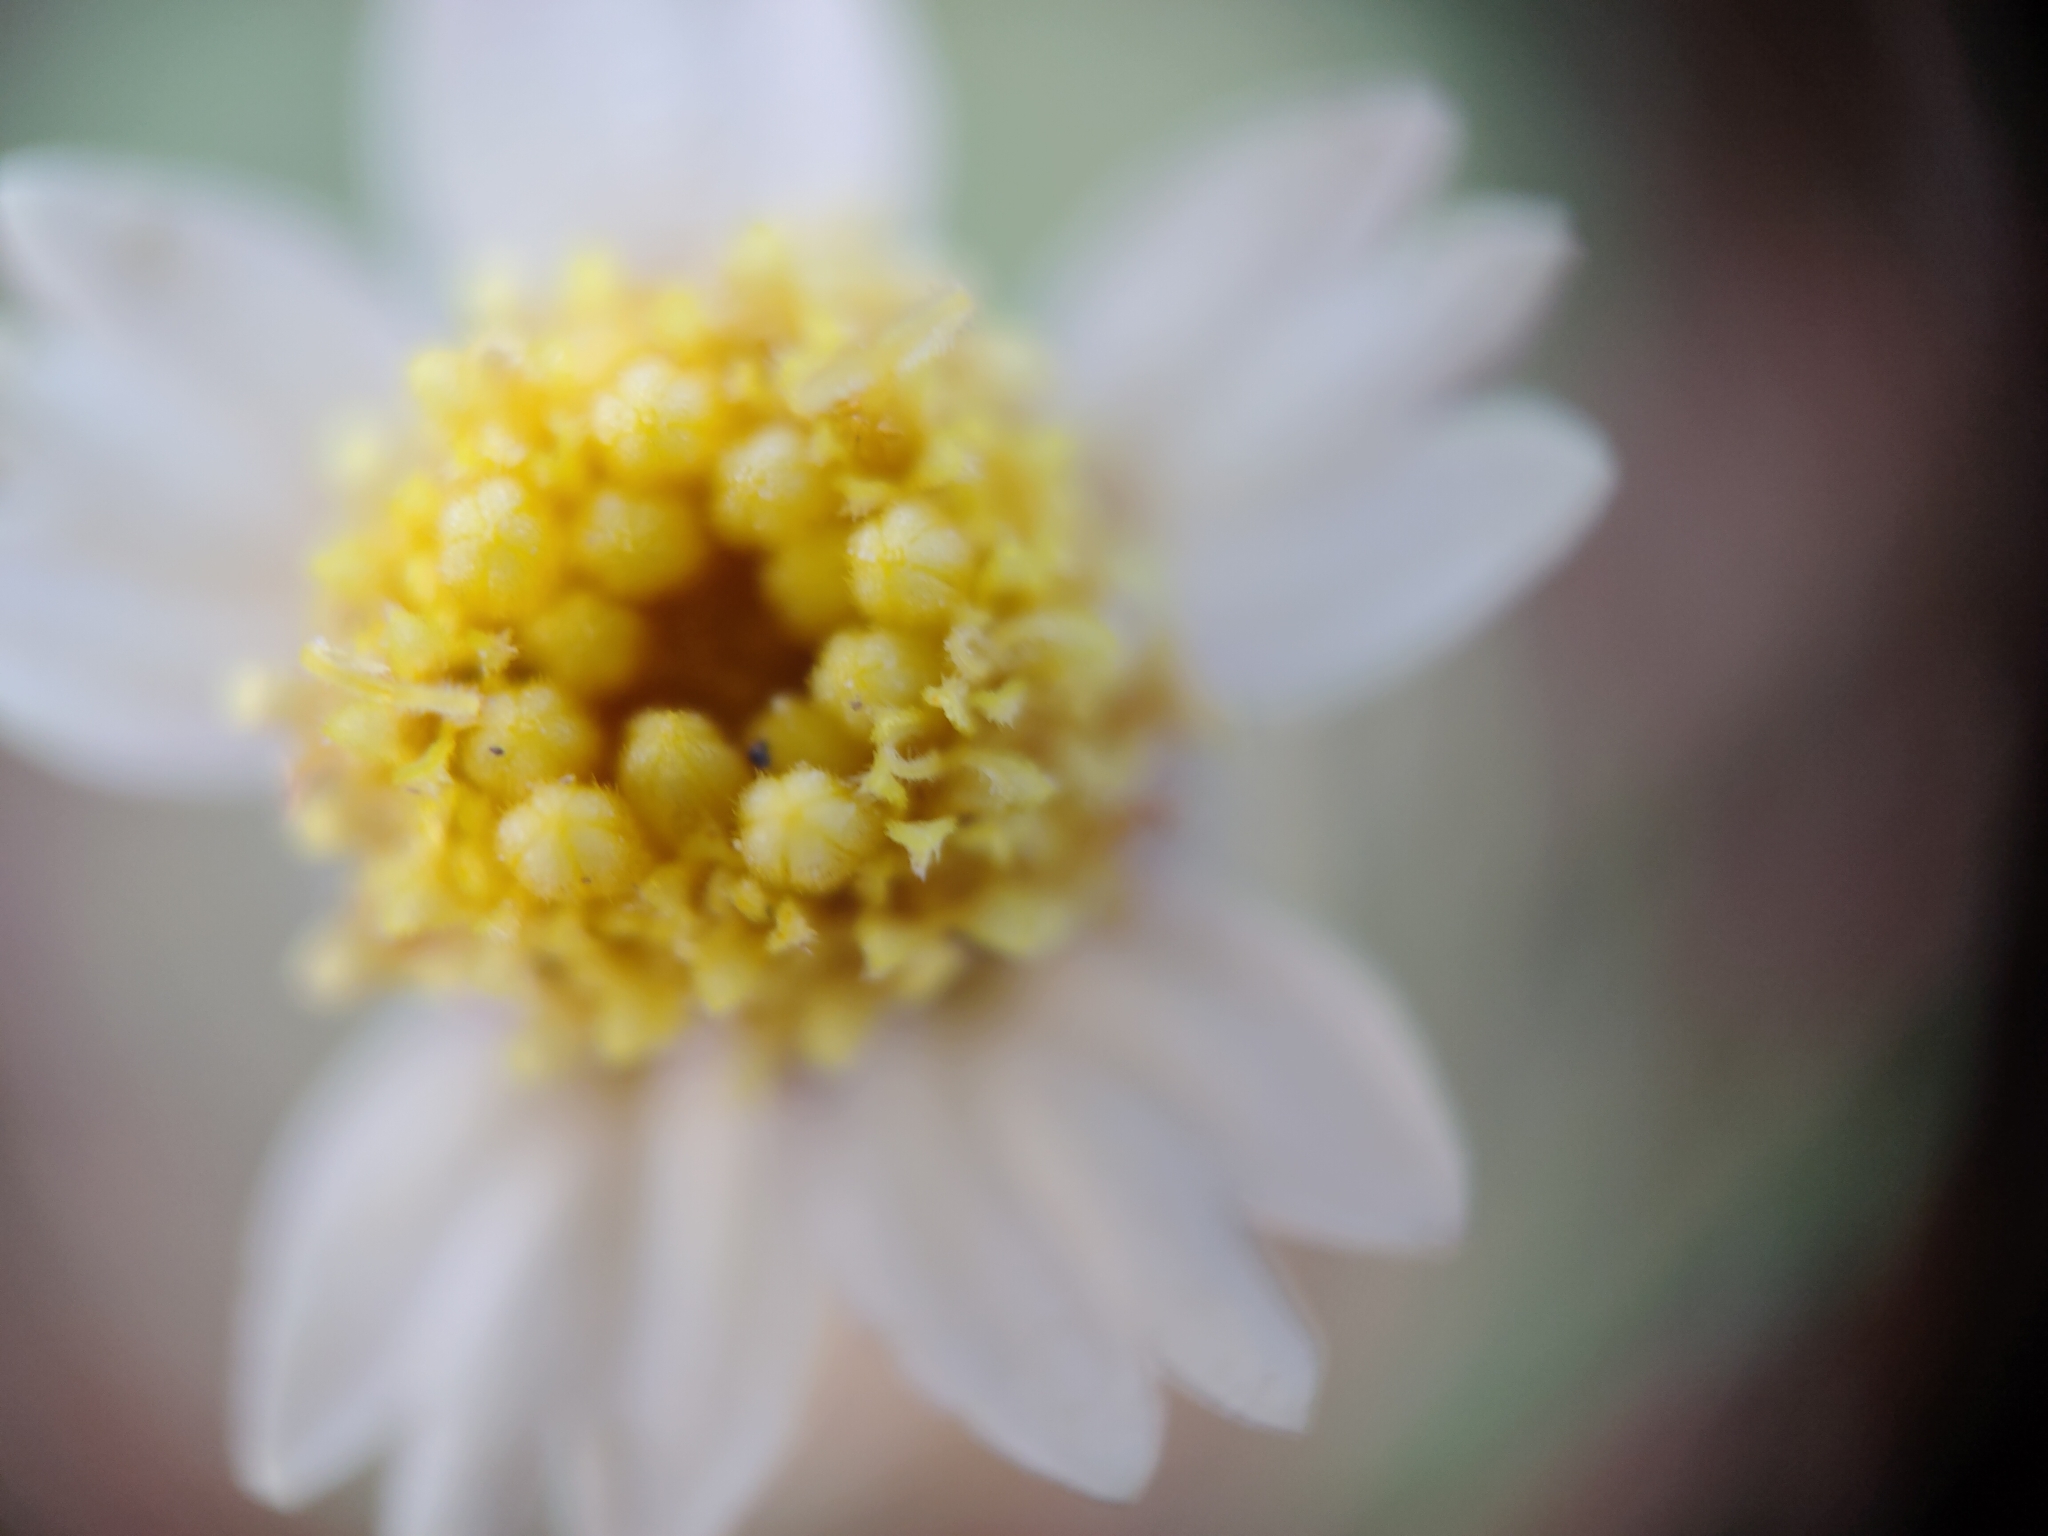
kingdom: Plantae
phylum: Tracheophyta
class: Magnoliopsida
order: Asterales
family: Asteraceae
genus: Tridax
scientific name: Tridax procumbens
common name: Coatbuttons
